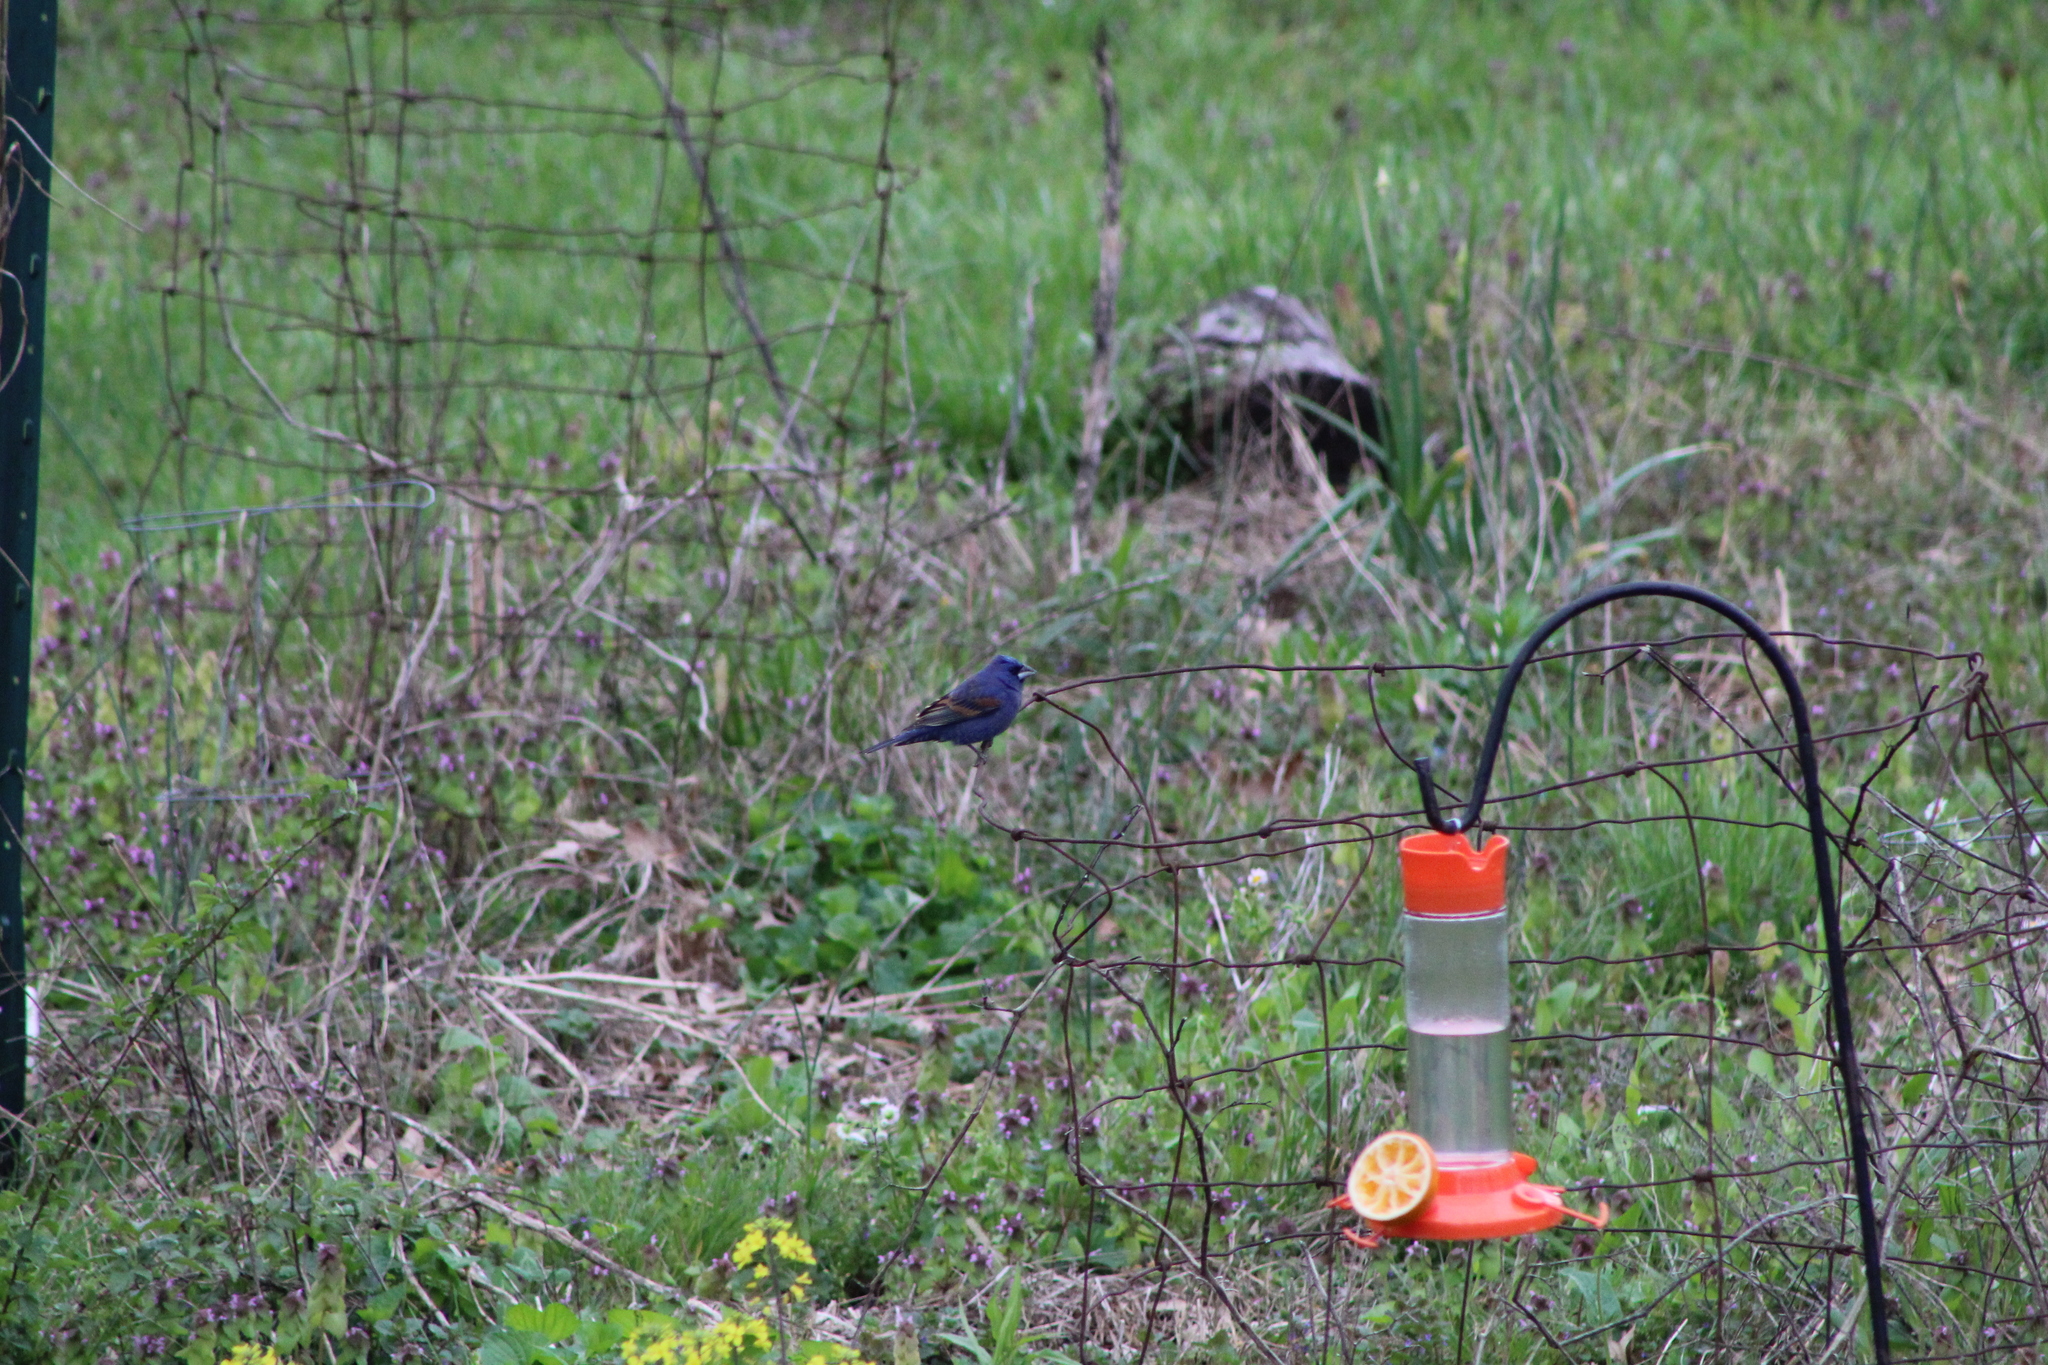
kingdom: Animalia
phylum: Chordata
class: Aves
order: Passeriformes
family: Cardinalidae
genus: Passerina
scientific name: Passerina caerulea
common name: Blue grosbeak
